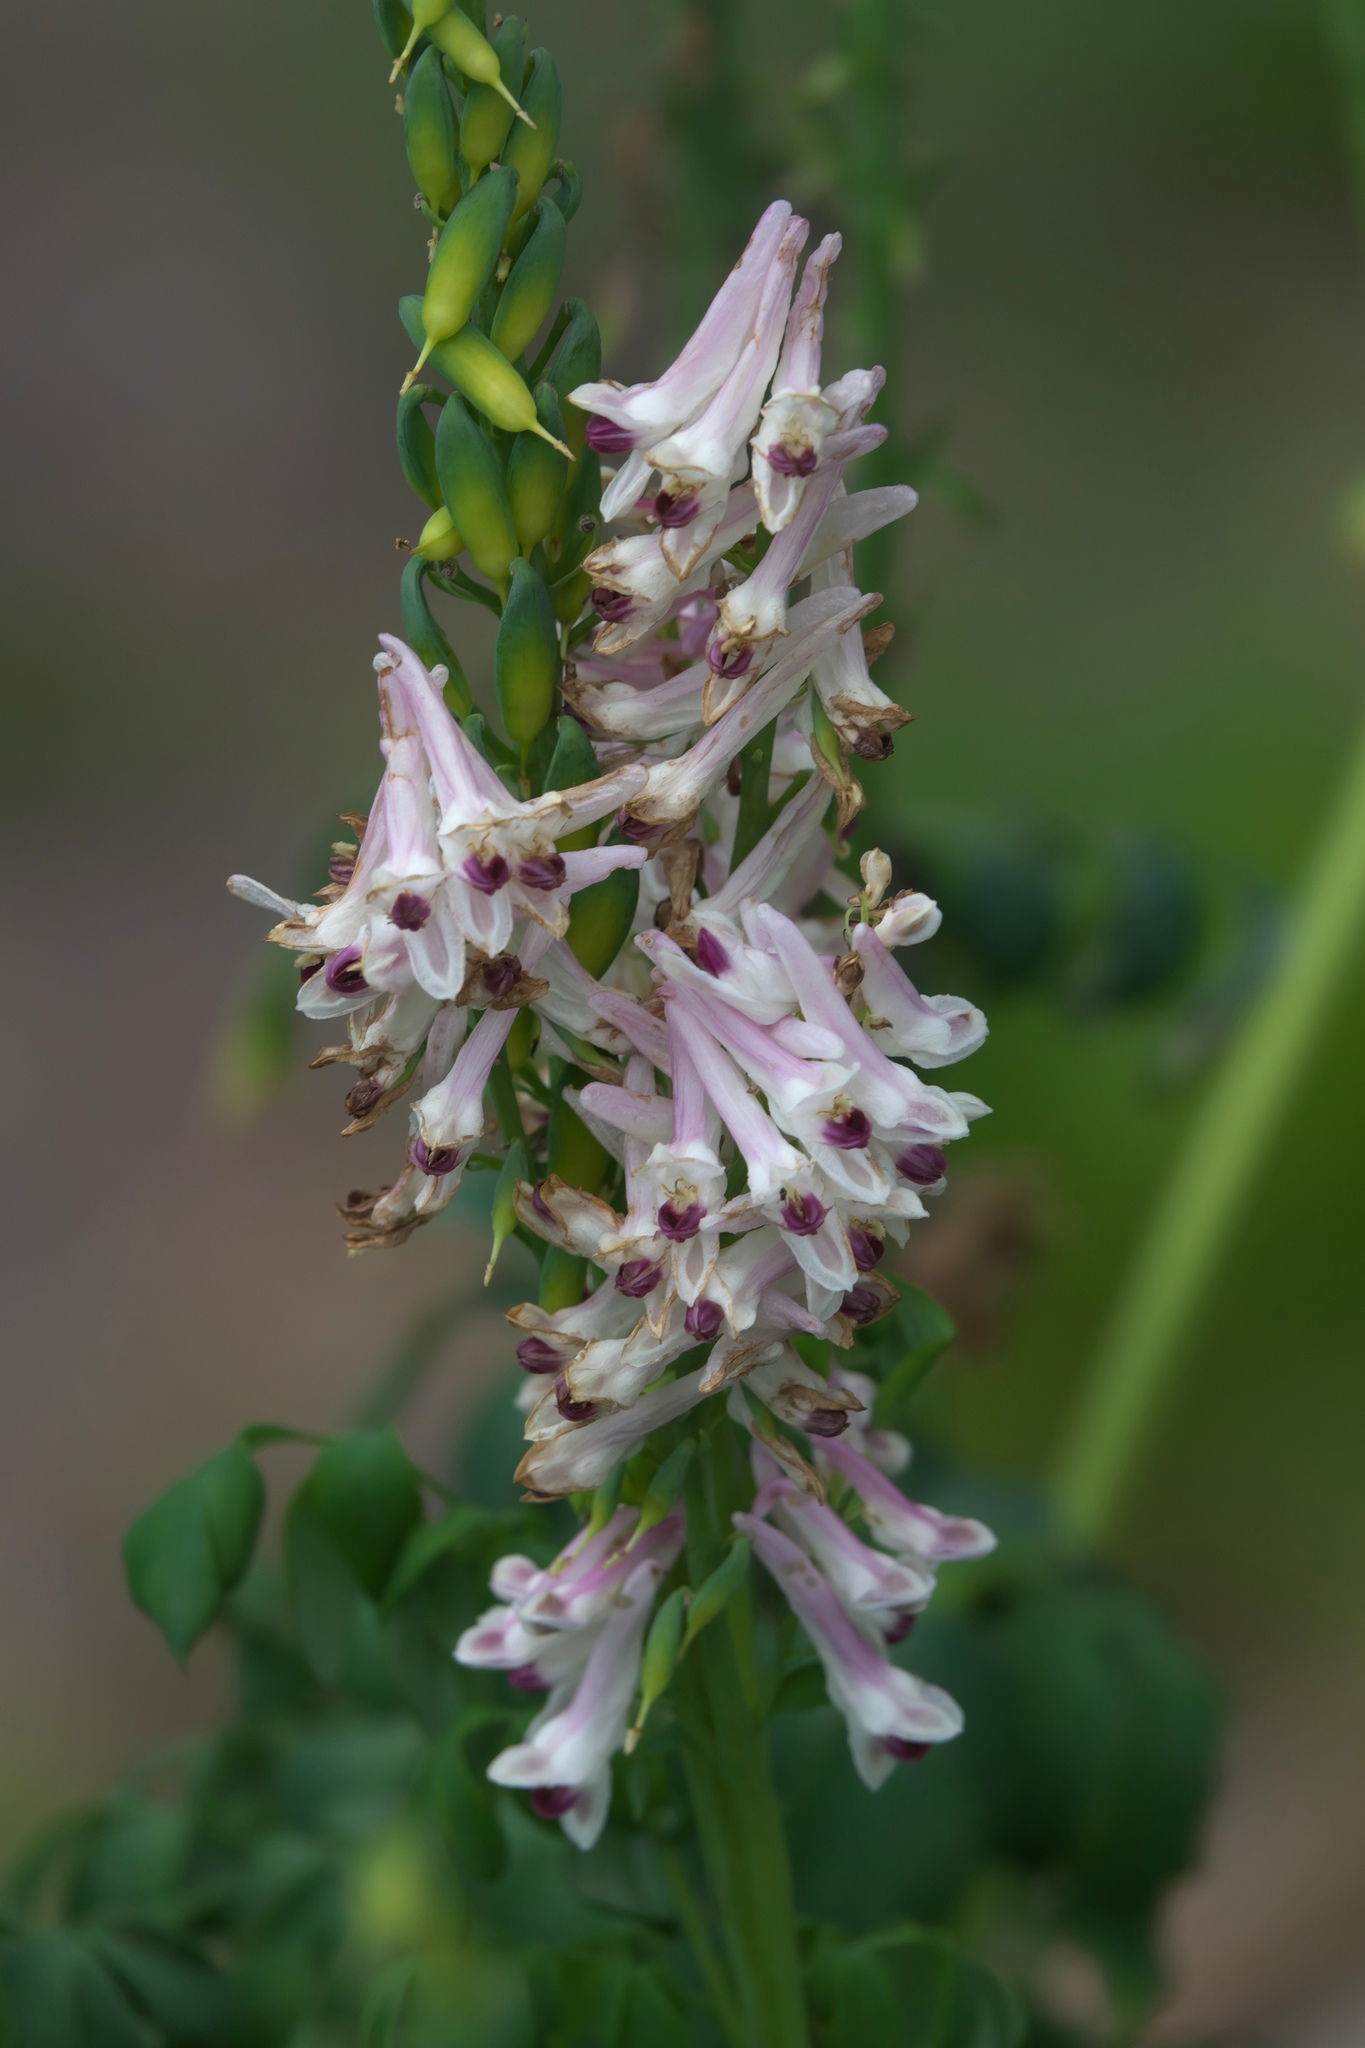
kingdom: Plantae
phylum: Tracheophyta
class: Magnoliopsida
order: Ranunculales
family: Papaveraceae
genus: Corydalis
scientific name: Corydalis caseana
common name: Fitweed
